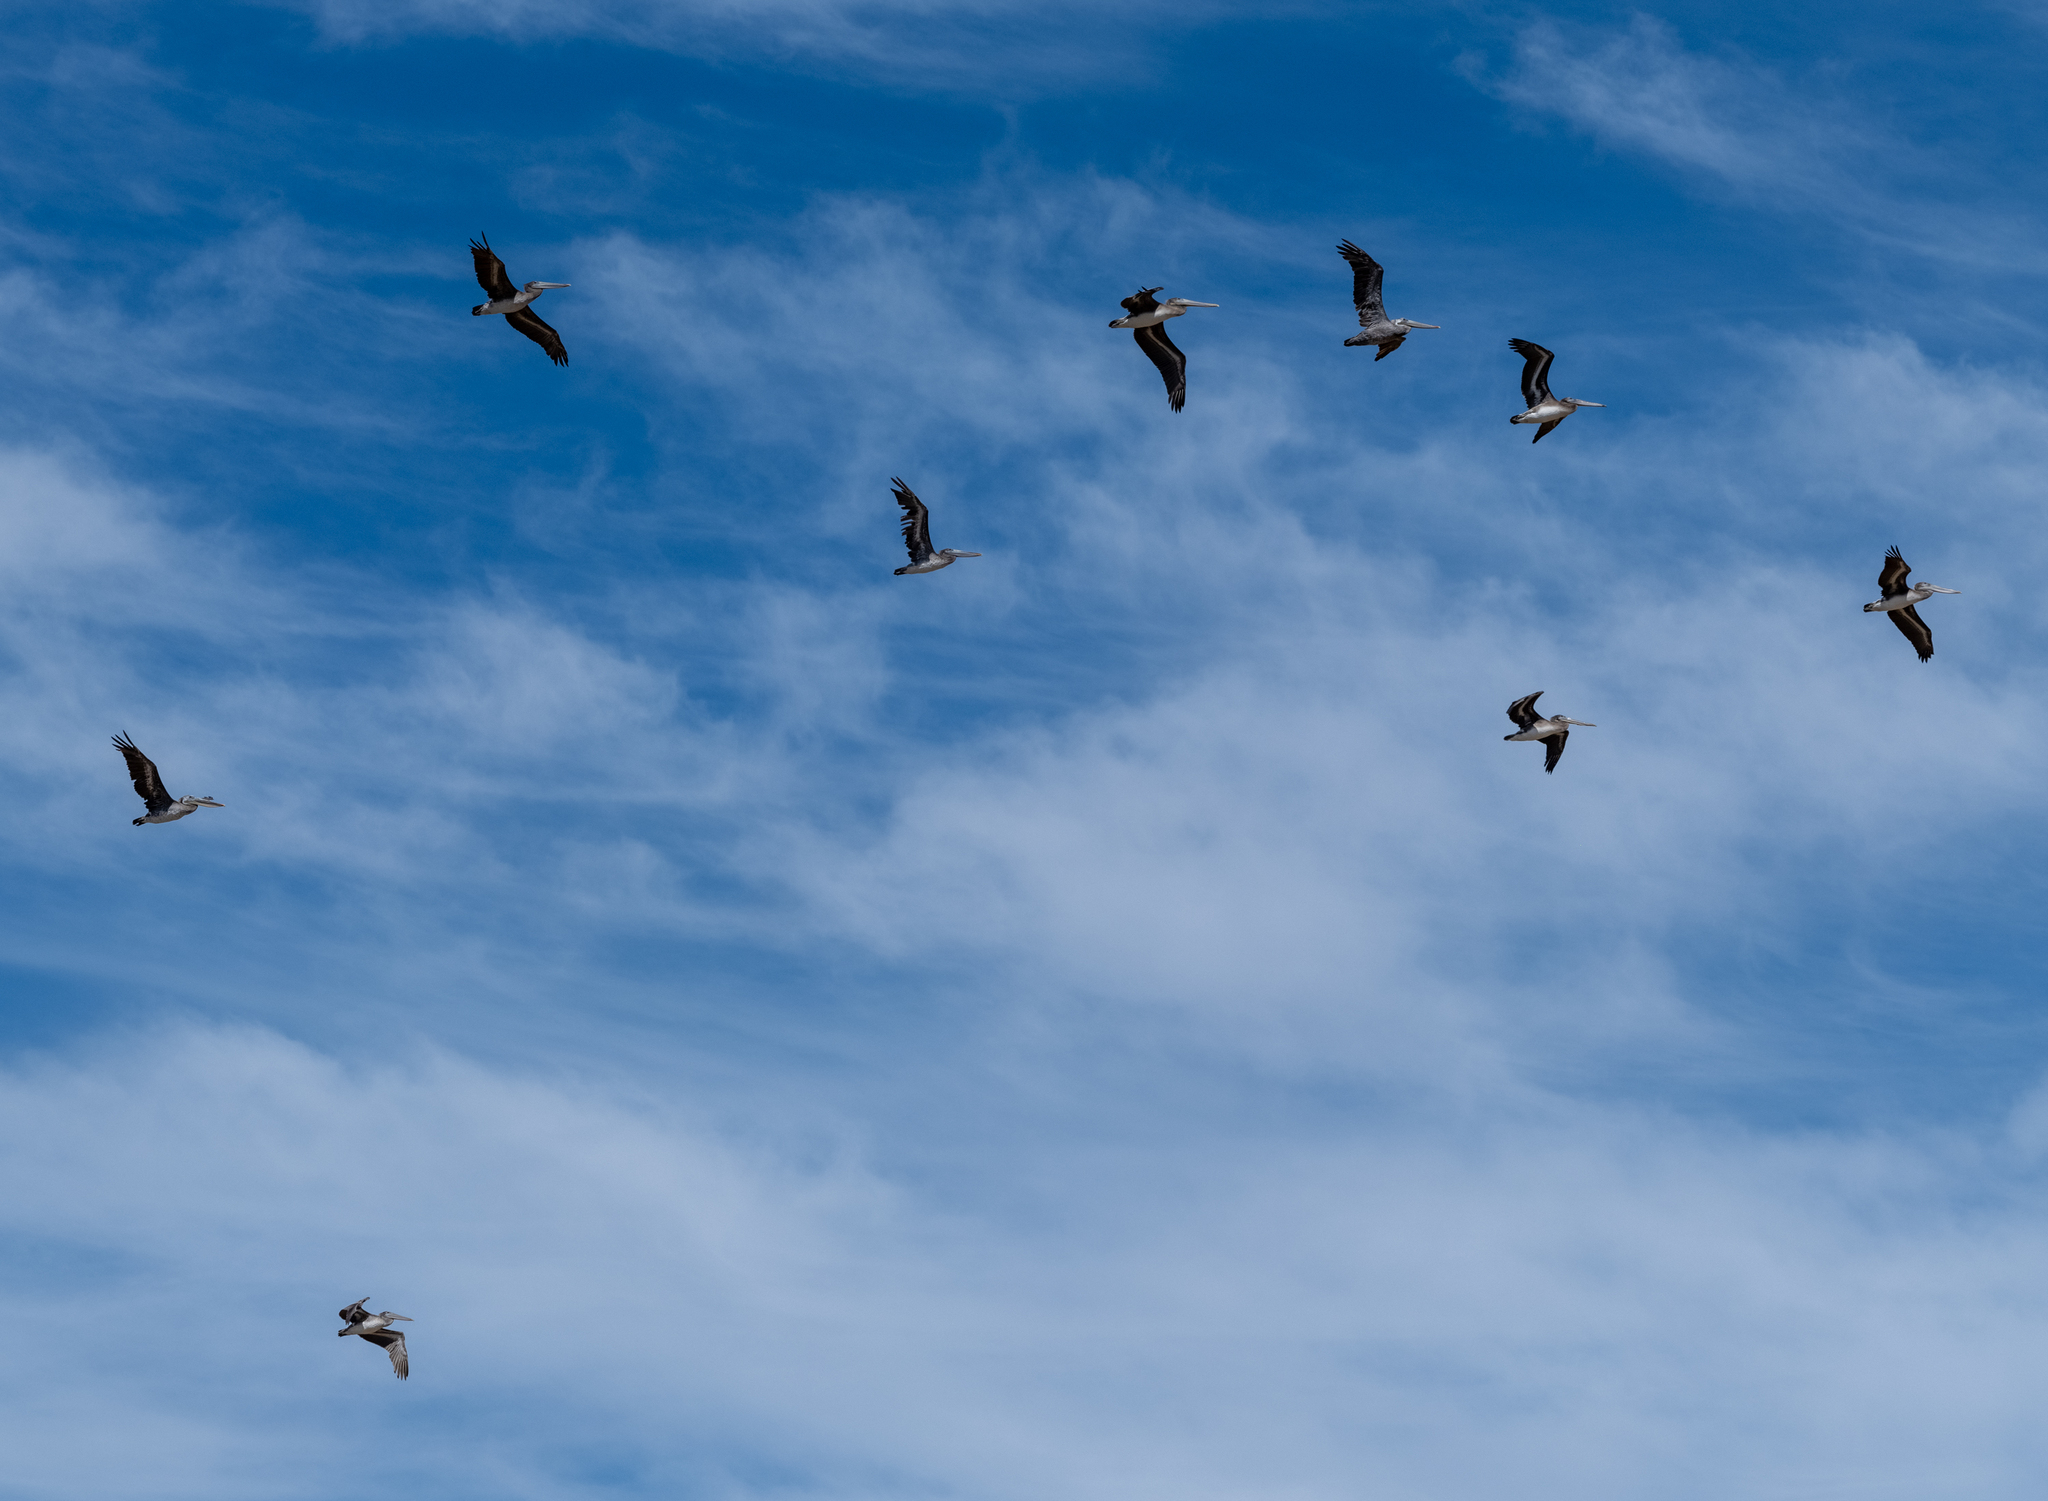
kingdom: Animalia
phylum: Chordata
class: Aves
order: Pelecaniformes
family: Pelecanidae
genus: Pelecanus
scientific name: Pelecanus occidentalis
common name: Brown pelican
